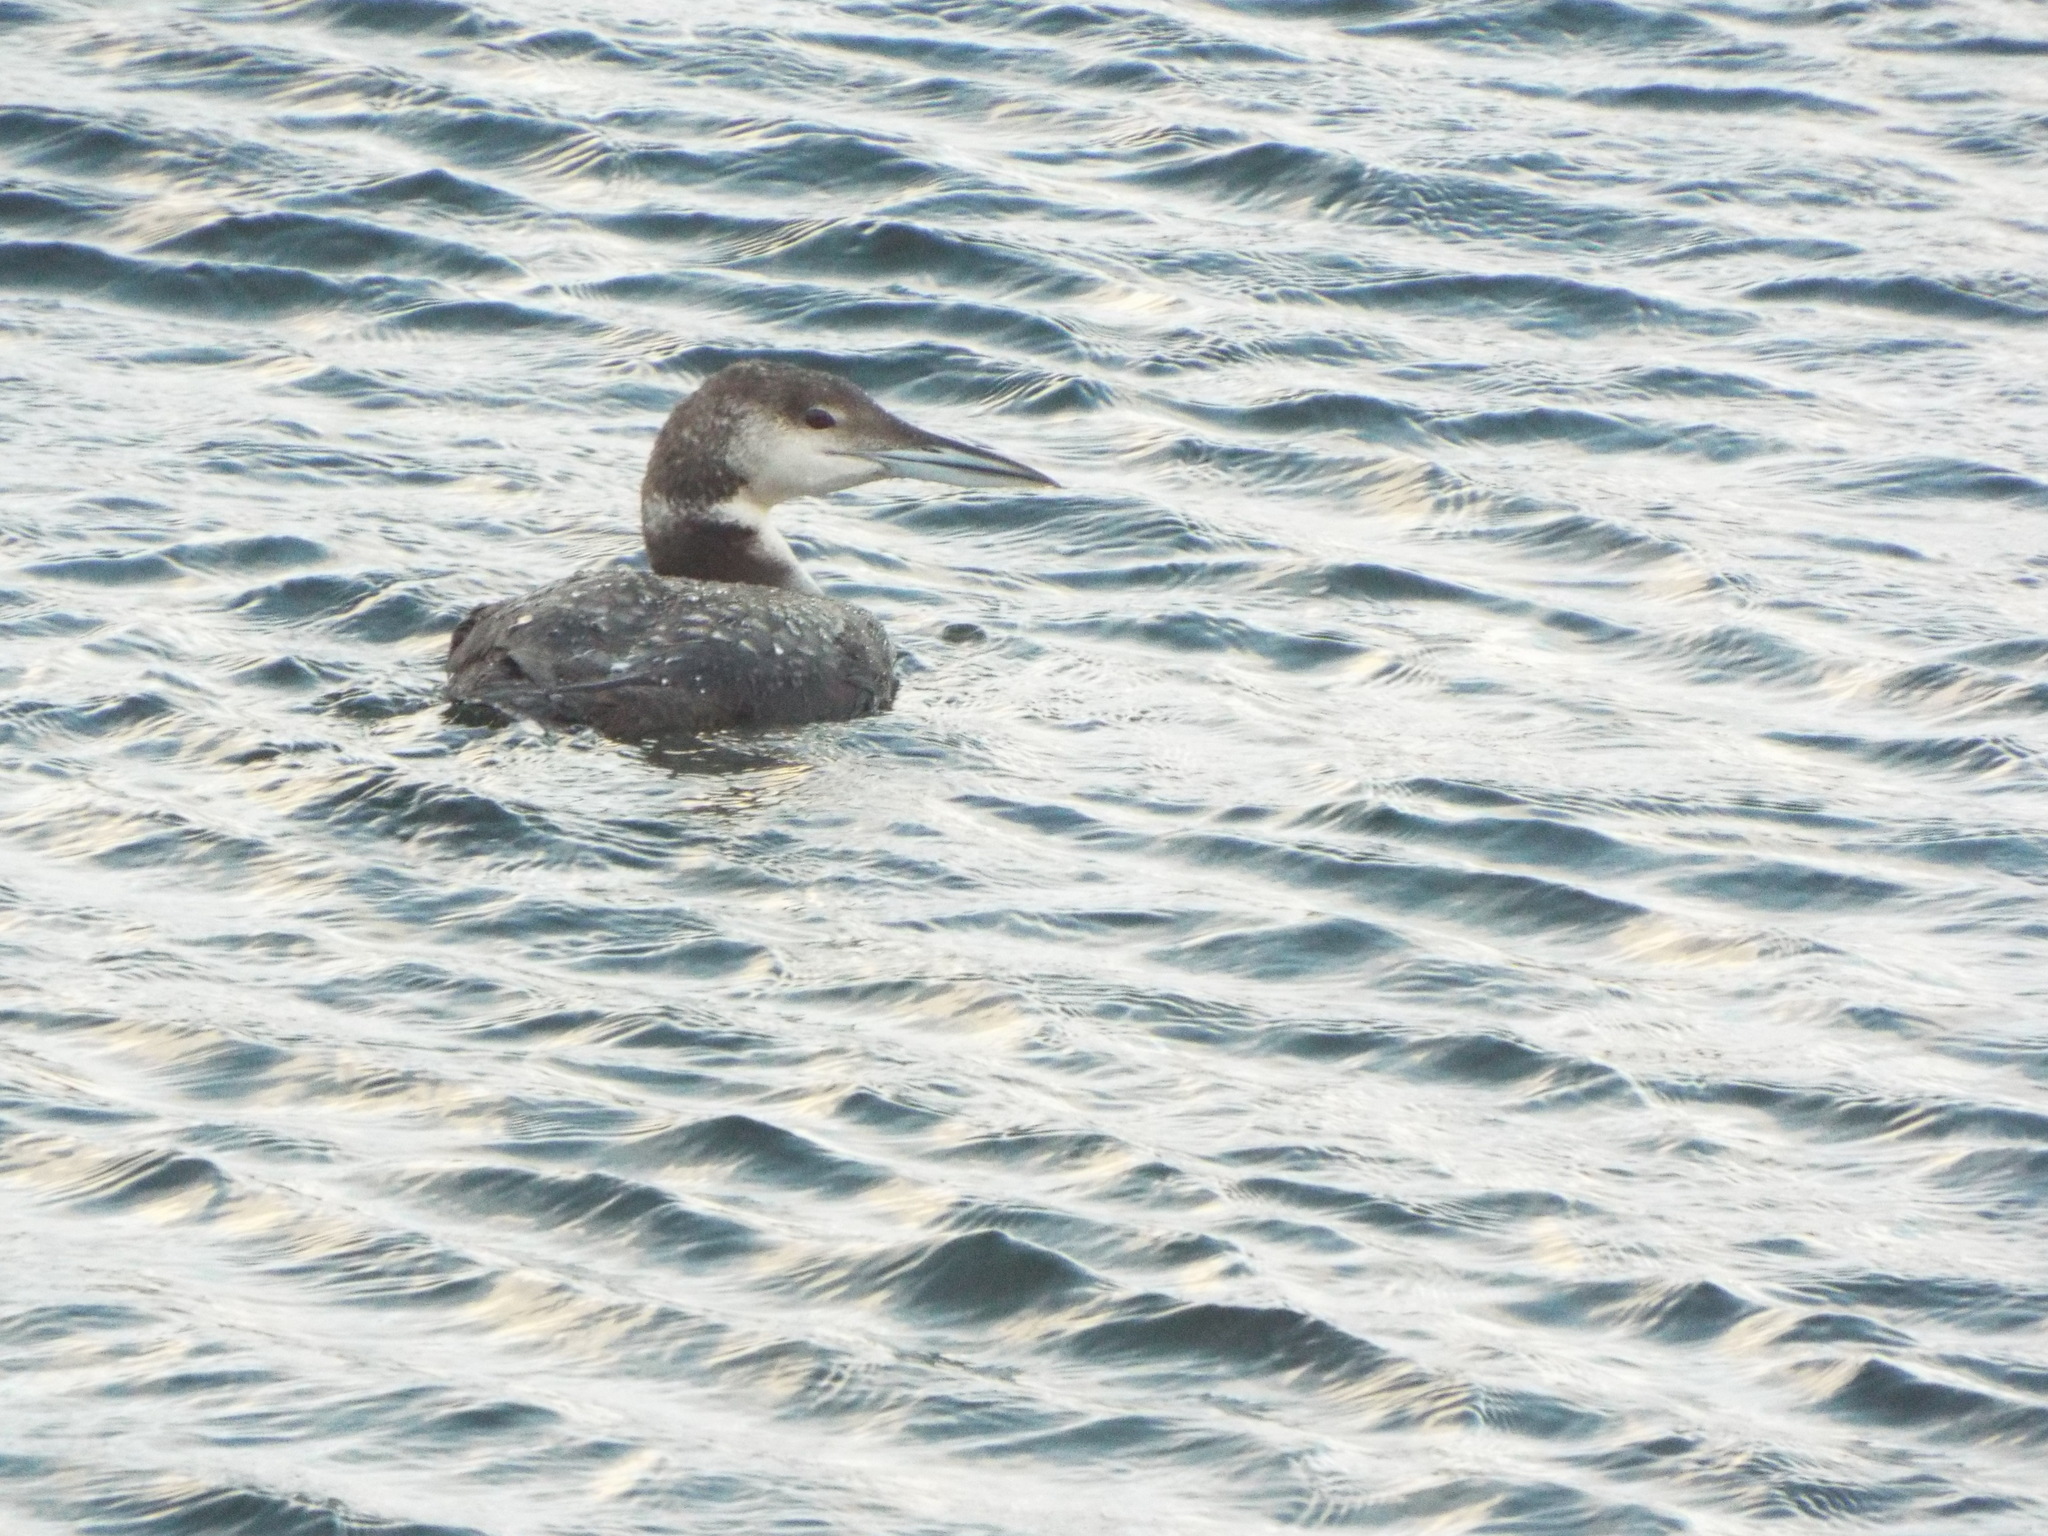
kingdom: Animalia
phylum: Chordata
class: Aves
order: Gaviiformes
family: Gaviidae
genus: Gavia
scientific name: Gavia immer
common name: Common loon
